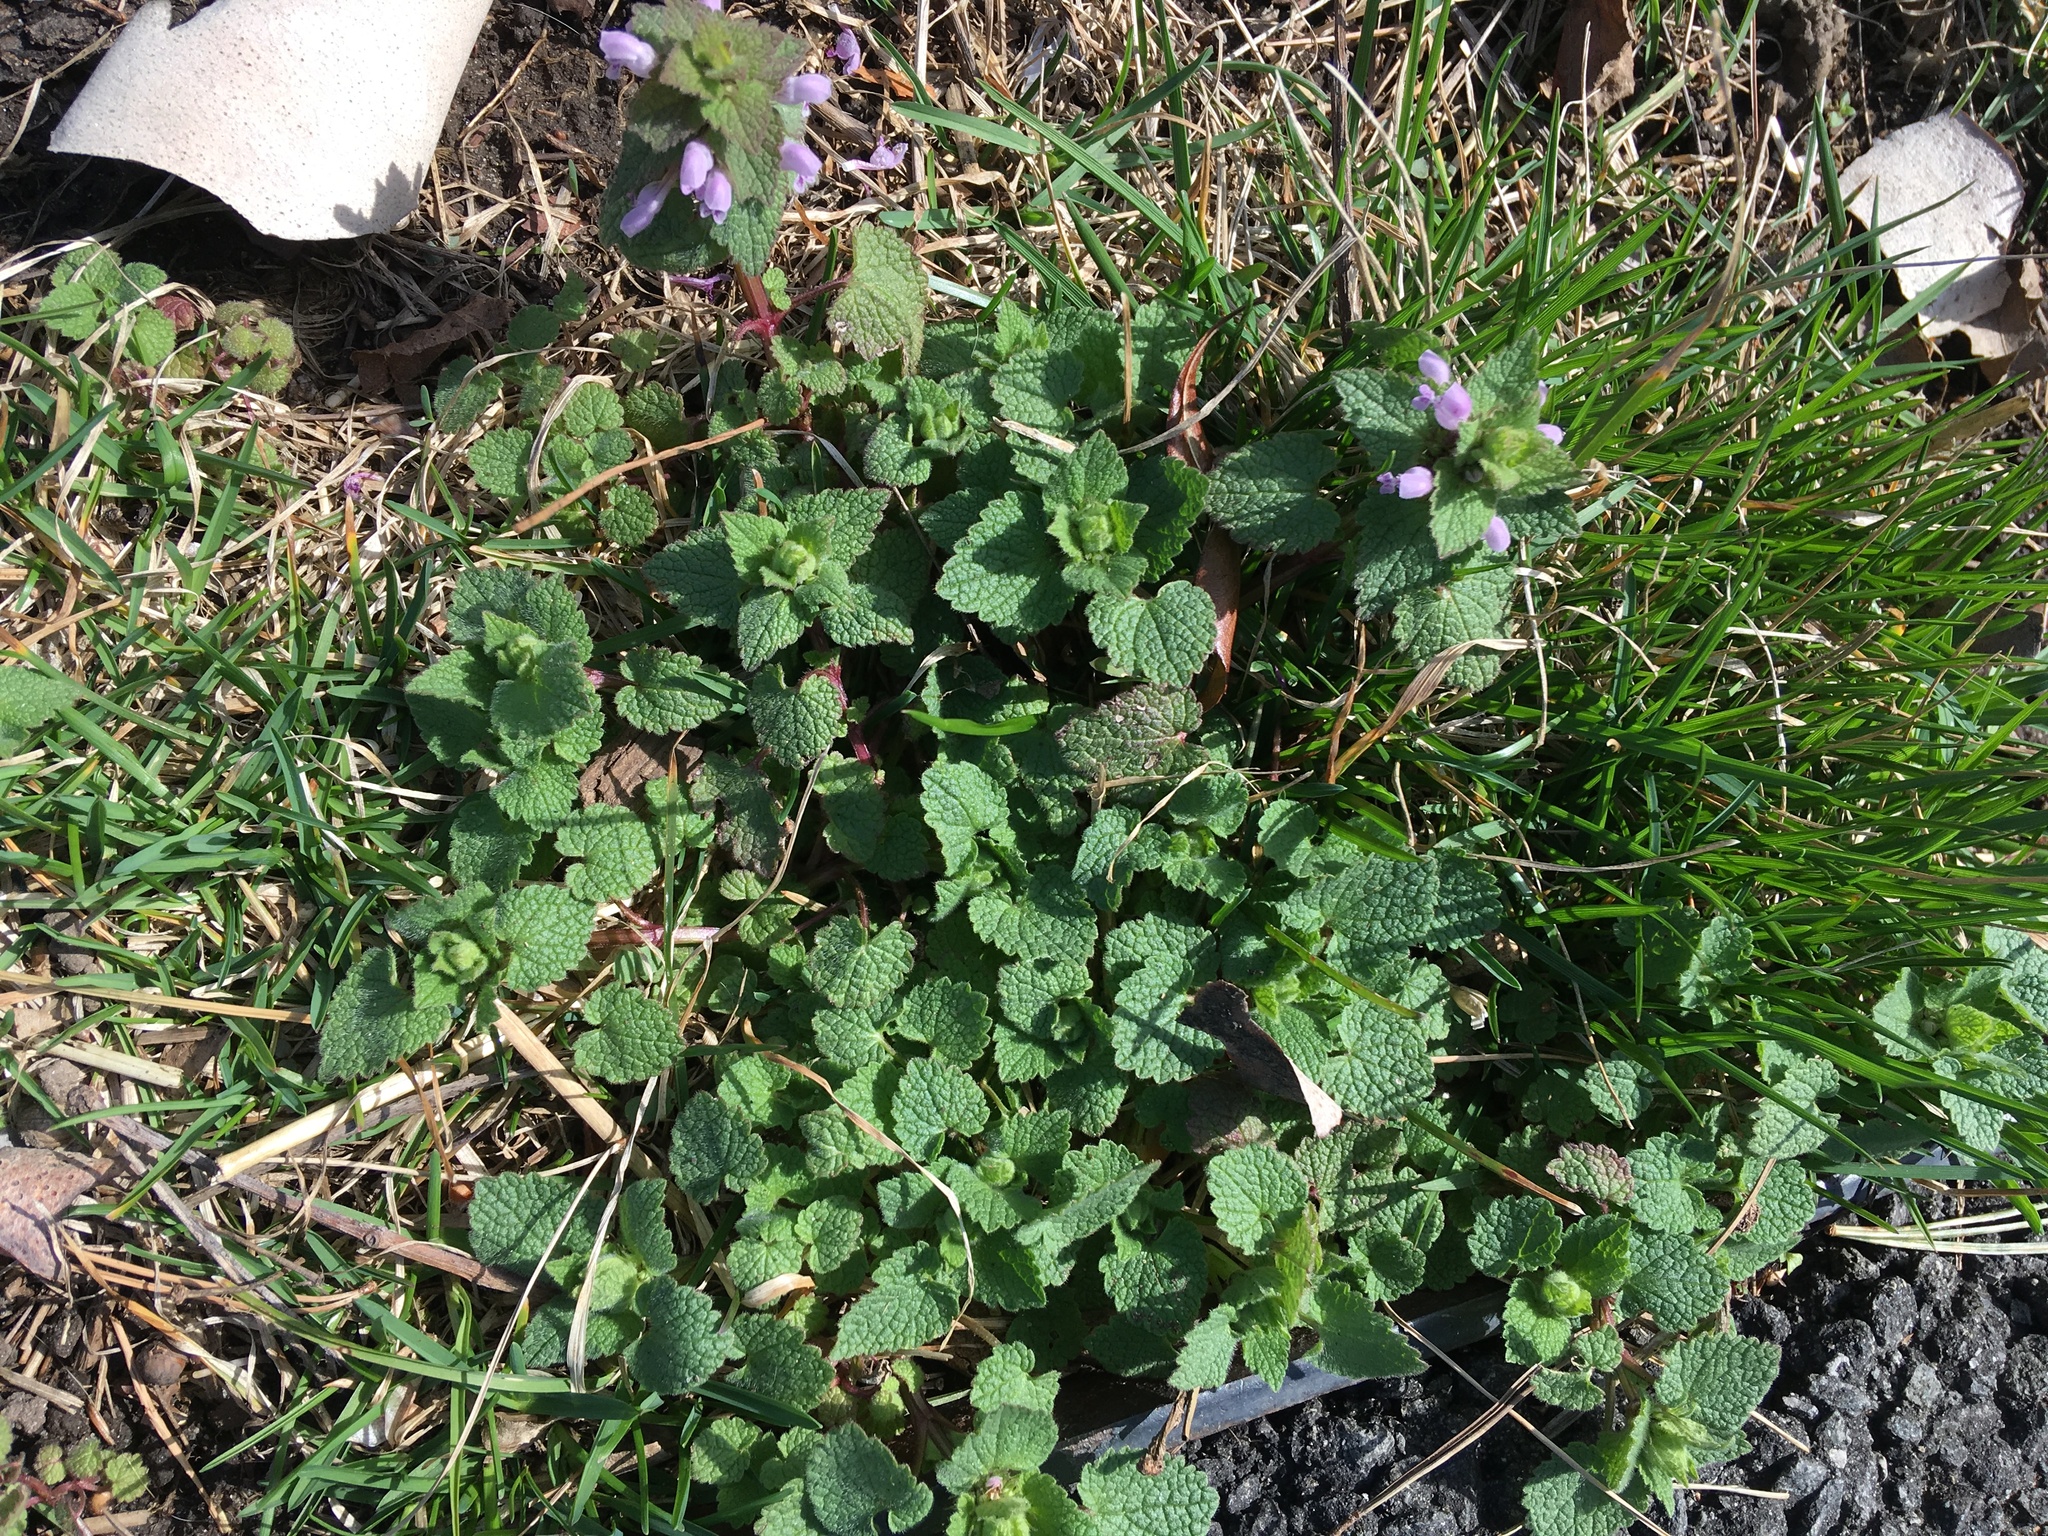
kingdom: Plantae
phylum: Tracheophyta
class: Magnoliopsida
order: Ranunculales
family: Ranunculaceae
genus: Ficaria
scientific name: Ficaria verna
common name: Lesser celandine
